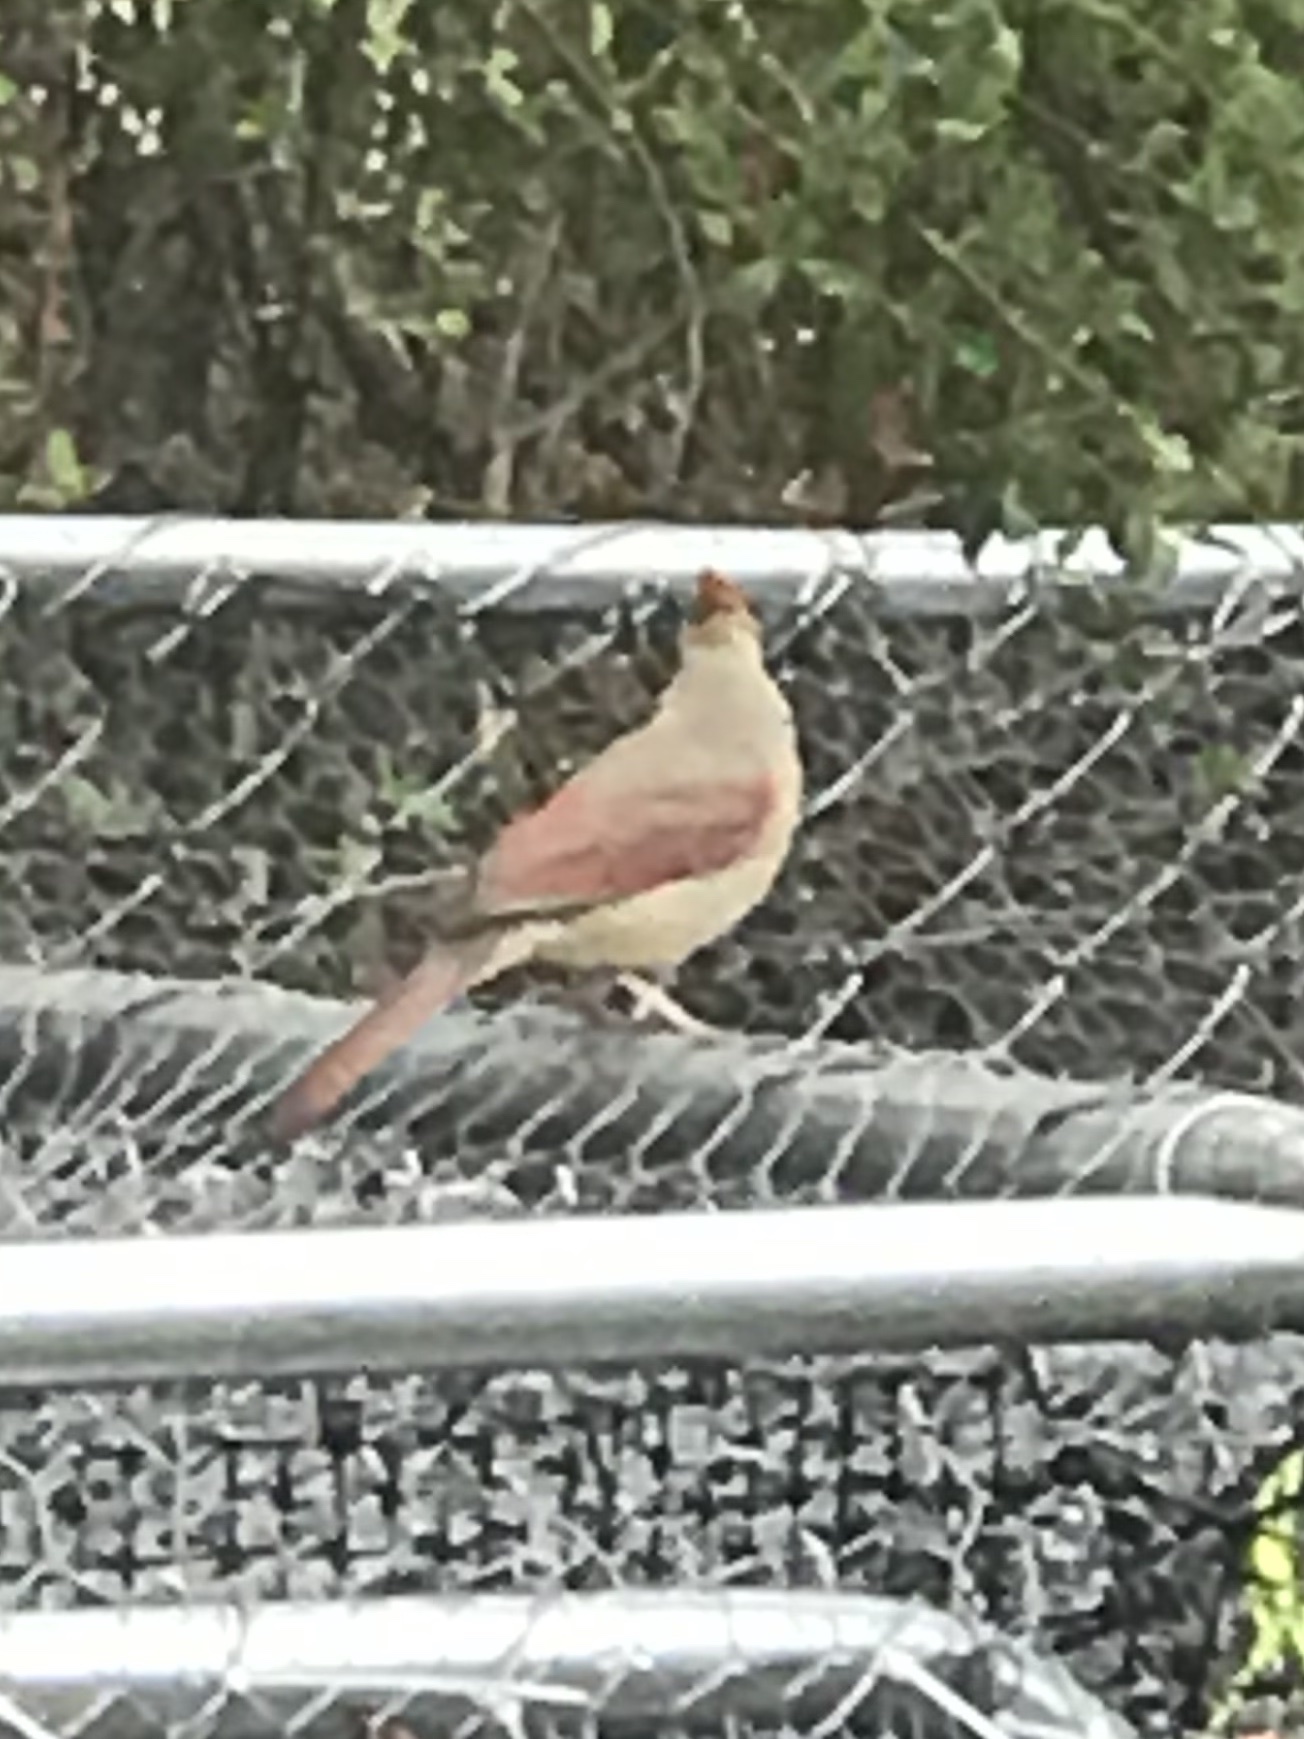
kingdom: Animalia
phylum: Chordata
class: Aves
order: Passeriformes
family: Cardinalidae
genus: Cardinalis
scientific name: Cardinalis cardinalis
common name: Northern cardinal
